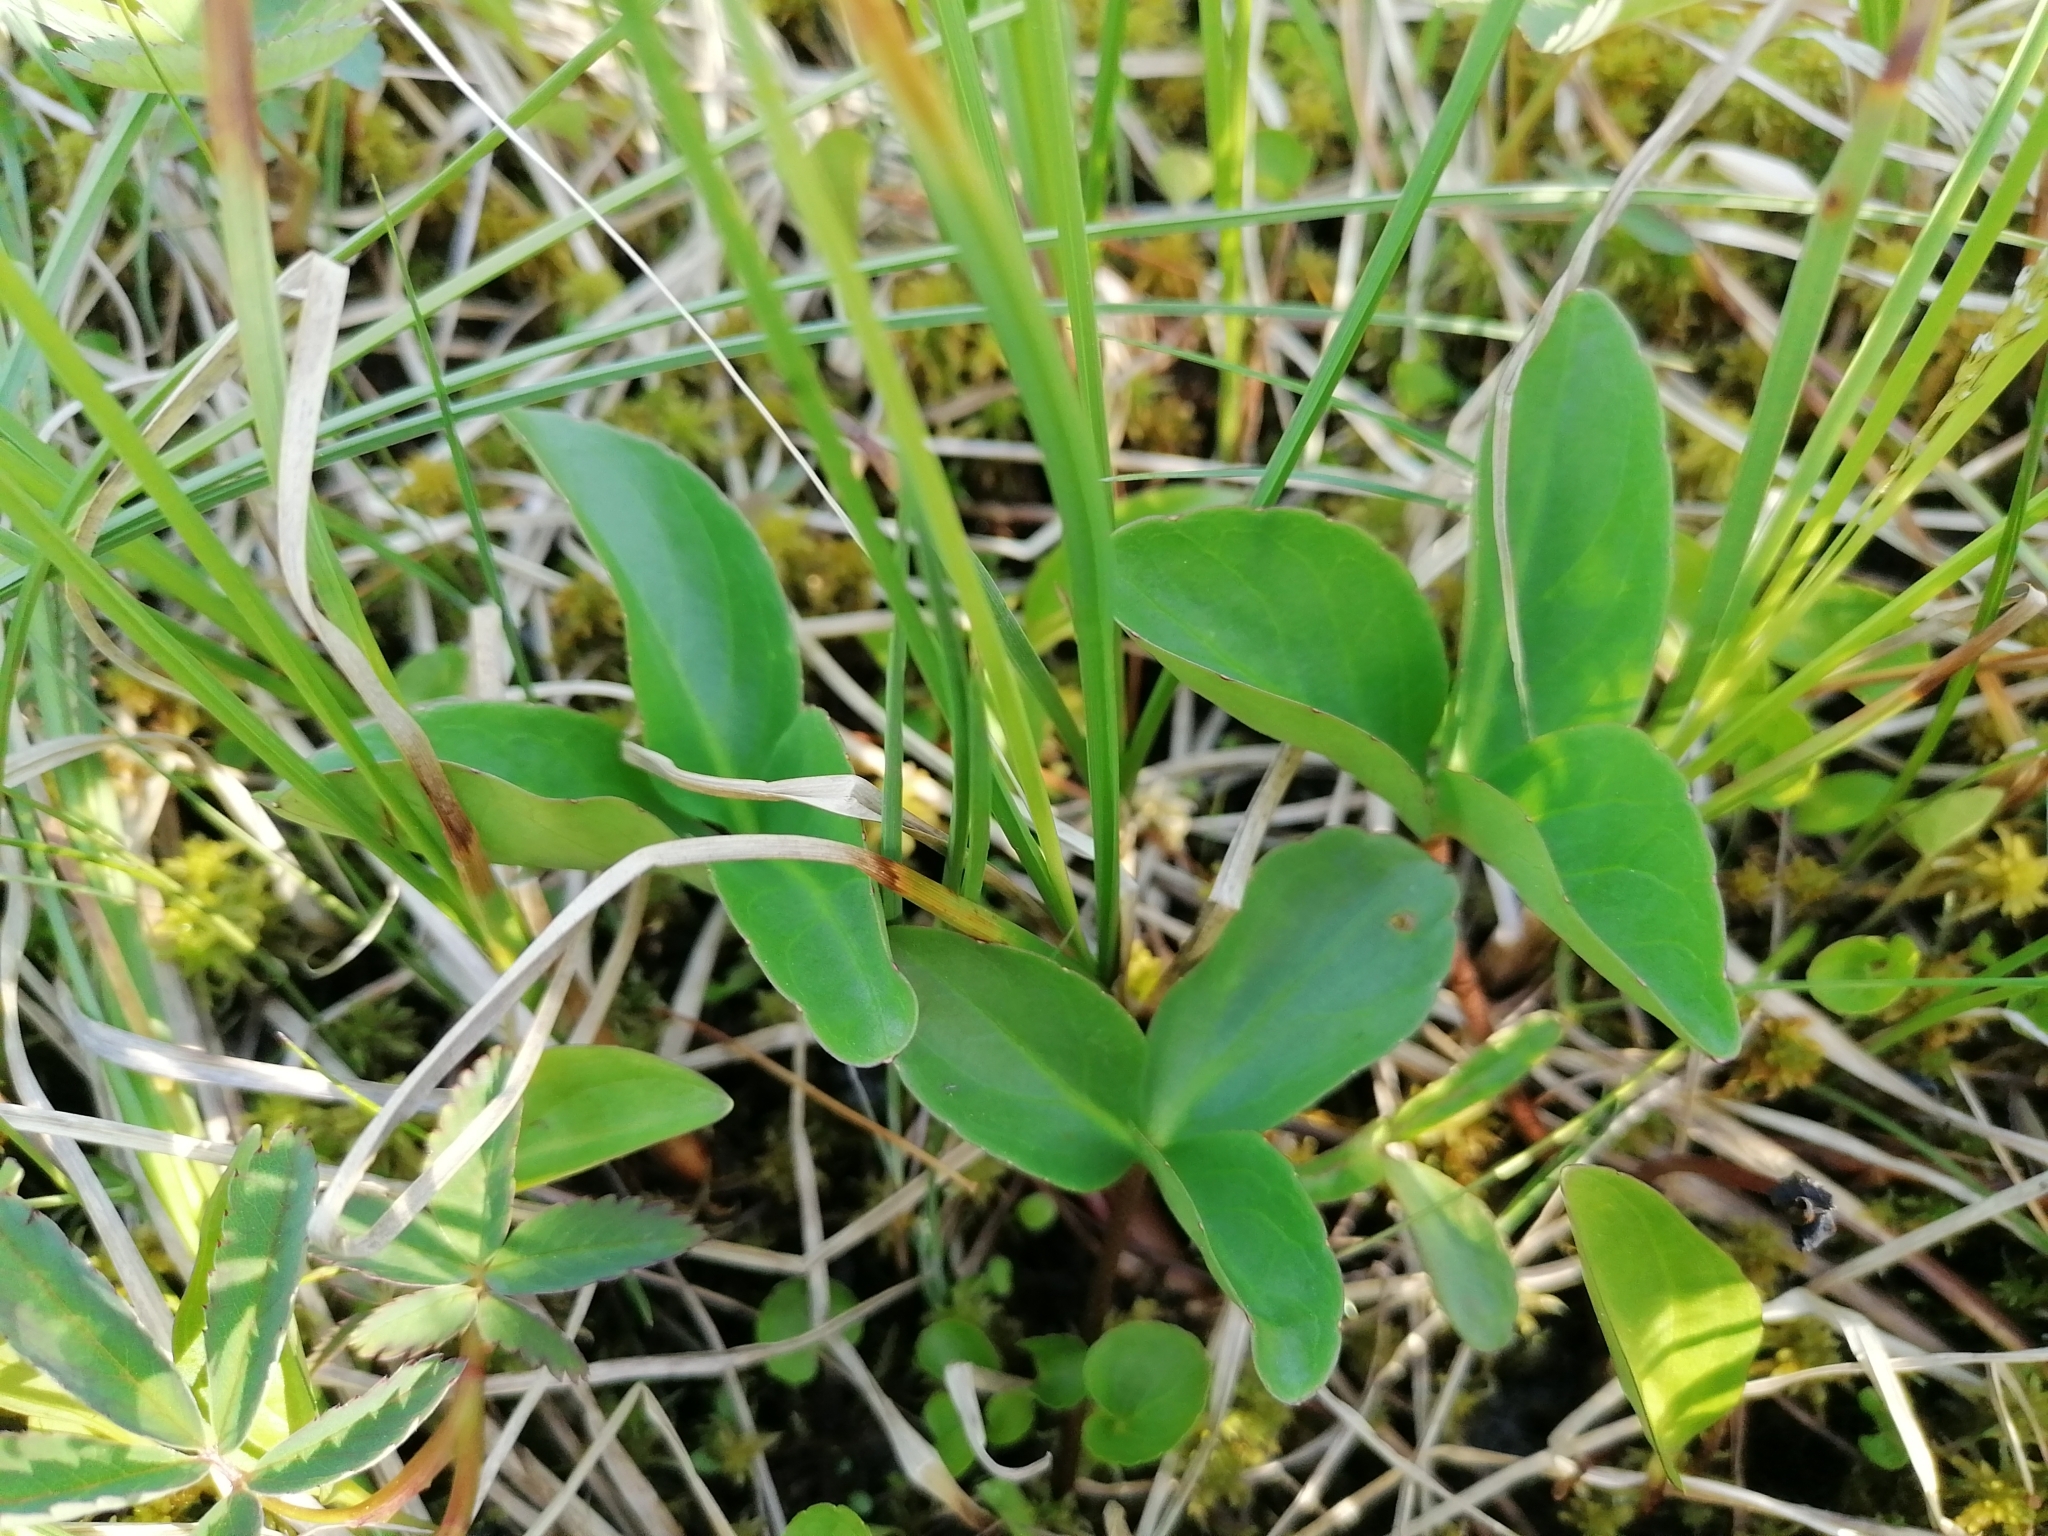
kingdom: Plantae
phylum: Tracheophyta
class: Magnoliopsida
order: Asterales
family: Menyanthaceae
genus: Menyanthes
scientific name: Menyanthes trifoliata
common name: Bogbean
